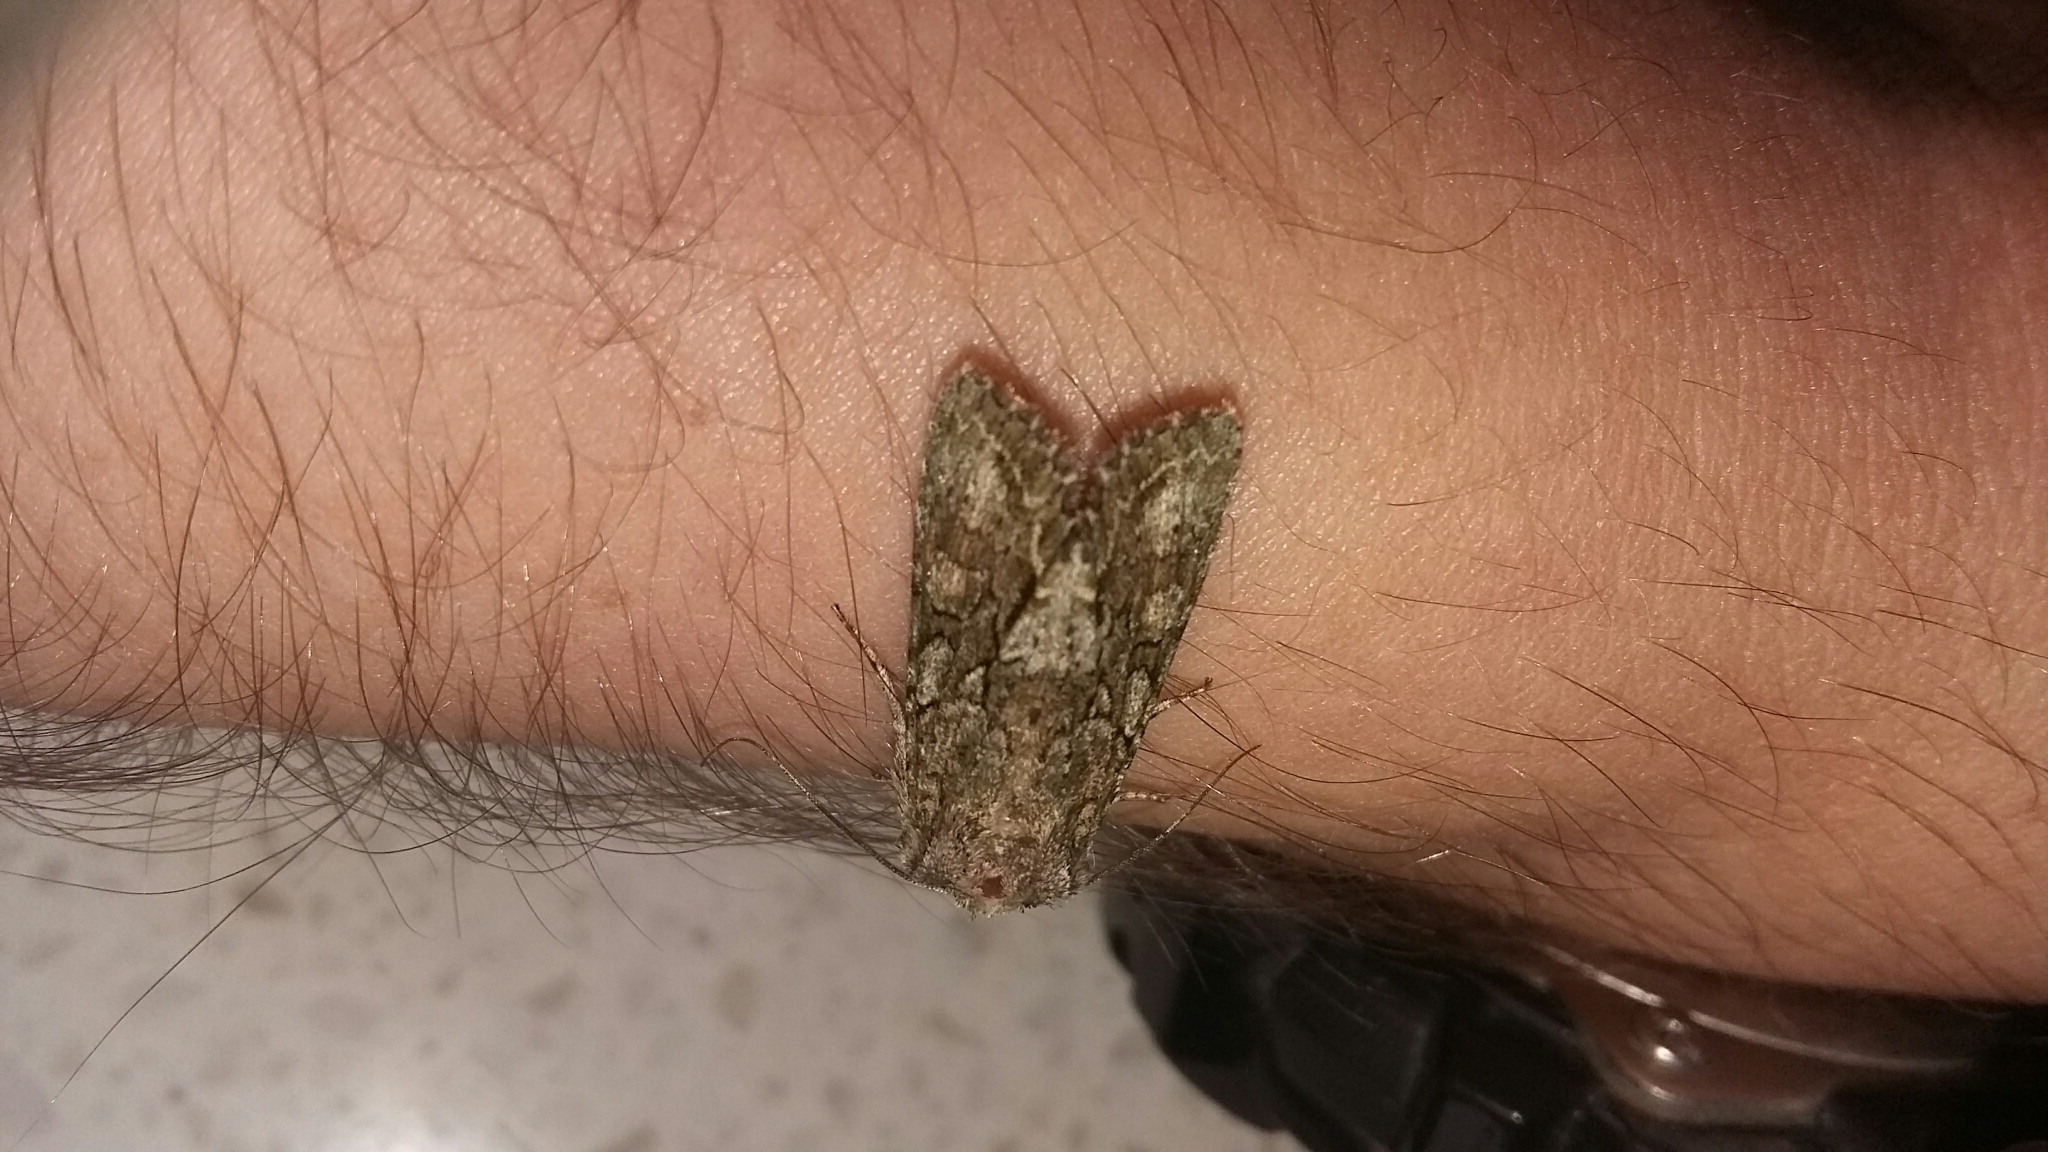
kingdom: Animalia
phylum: Arthropoda
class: Insecta
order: Lepidoptera
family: Noctuidae
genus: Ichneutica
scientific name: Ichneutica mutans
